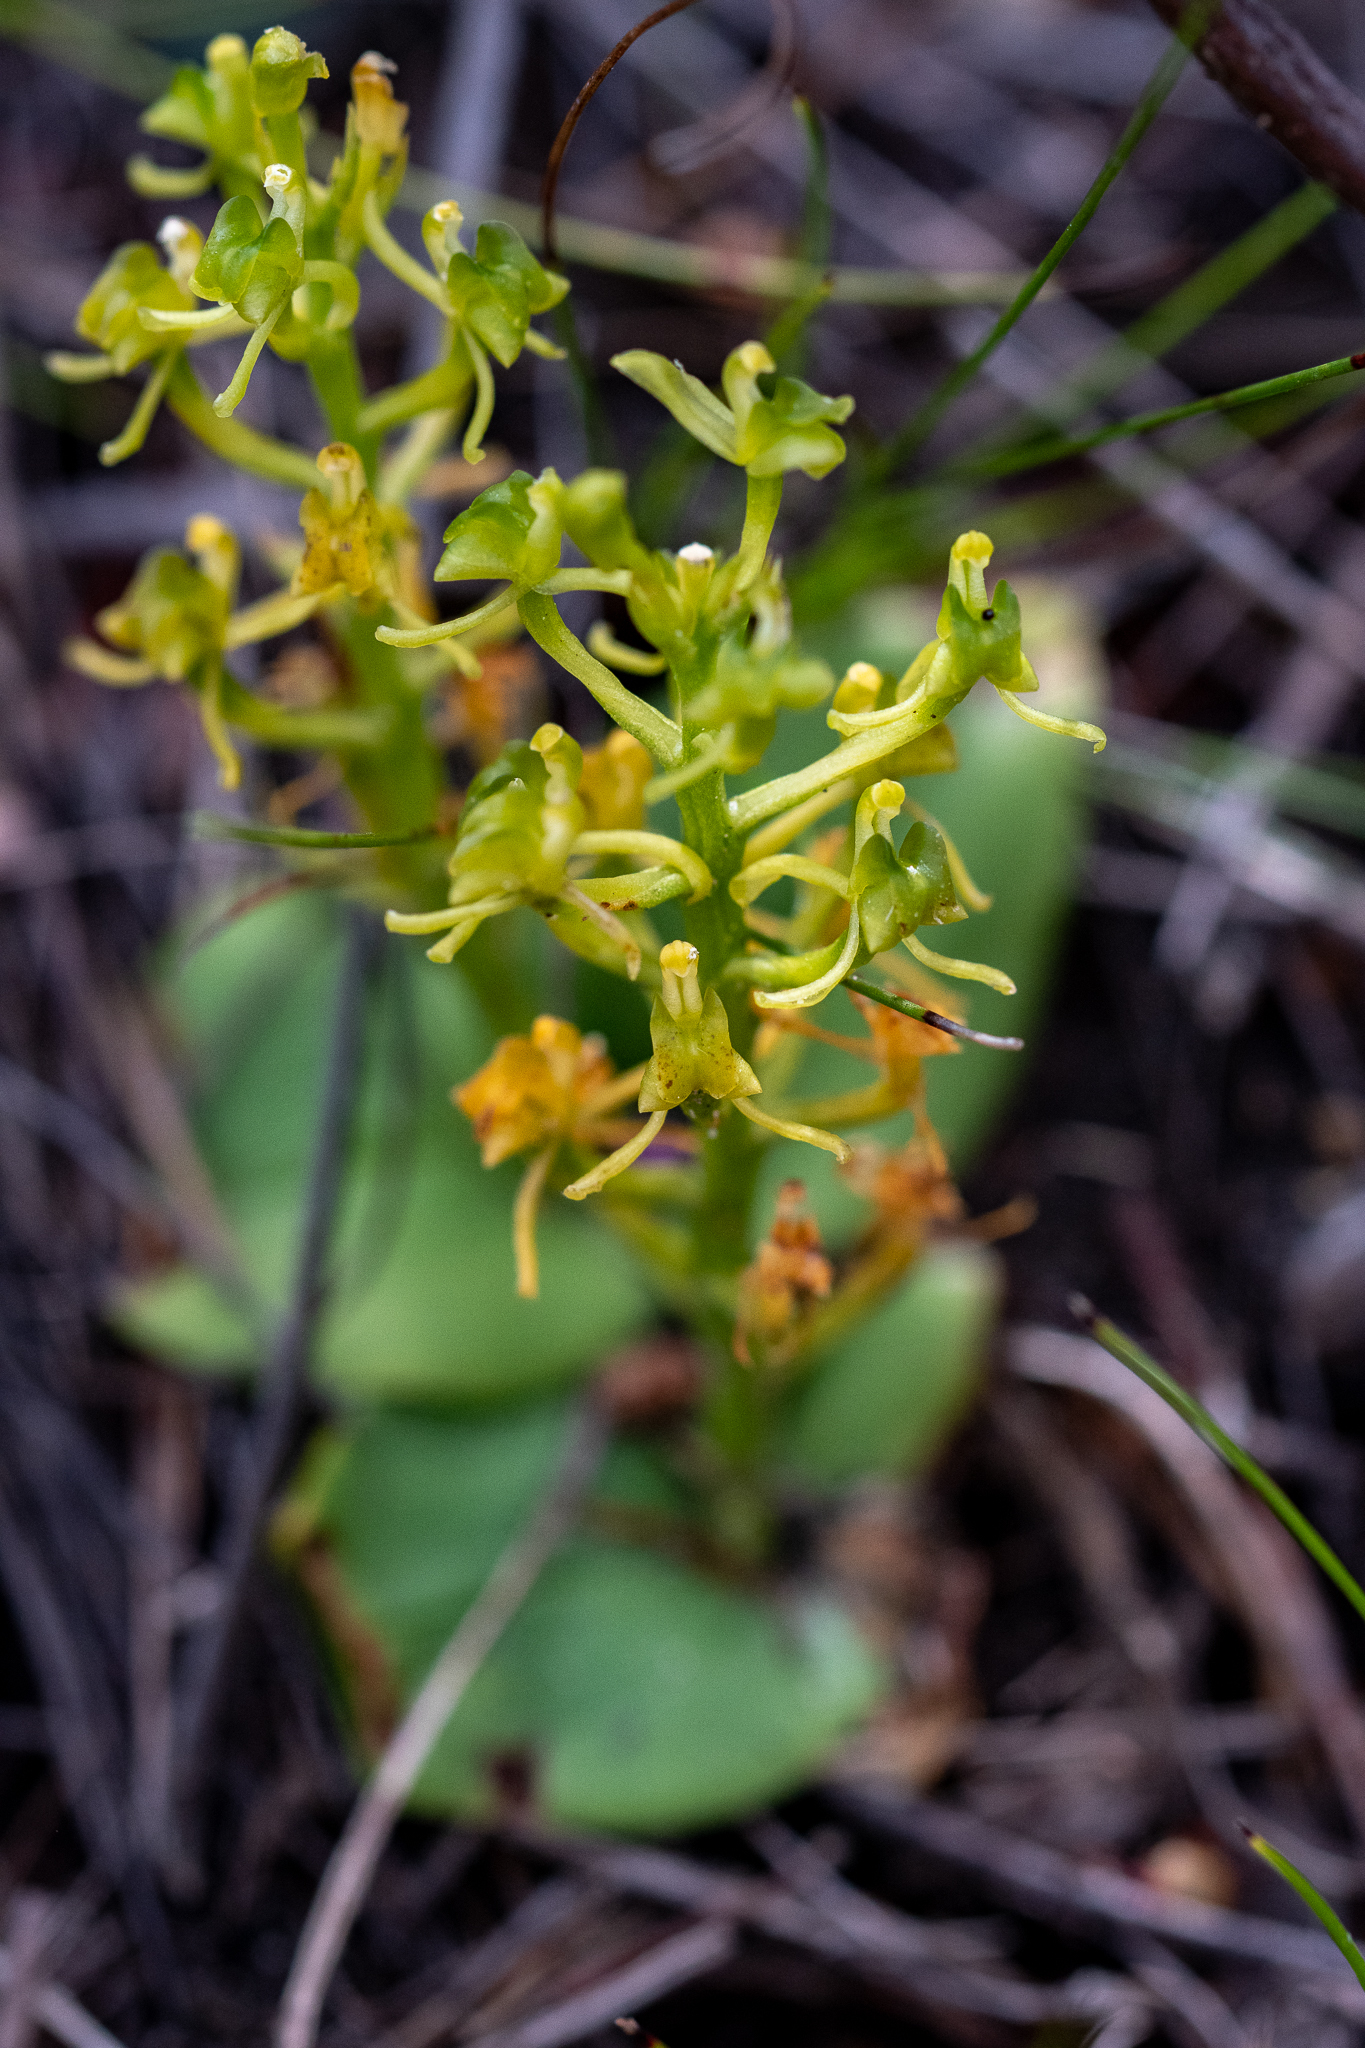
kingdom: Plantae
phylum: Tracheophyta
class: Liliopsida
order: Asparagales
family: Orchidaceae
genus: Liparis
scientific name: Liparis capensis
